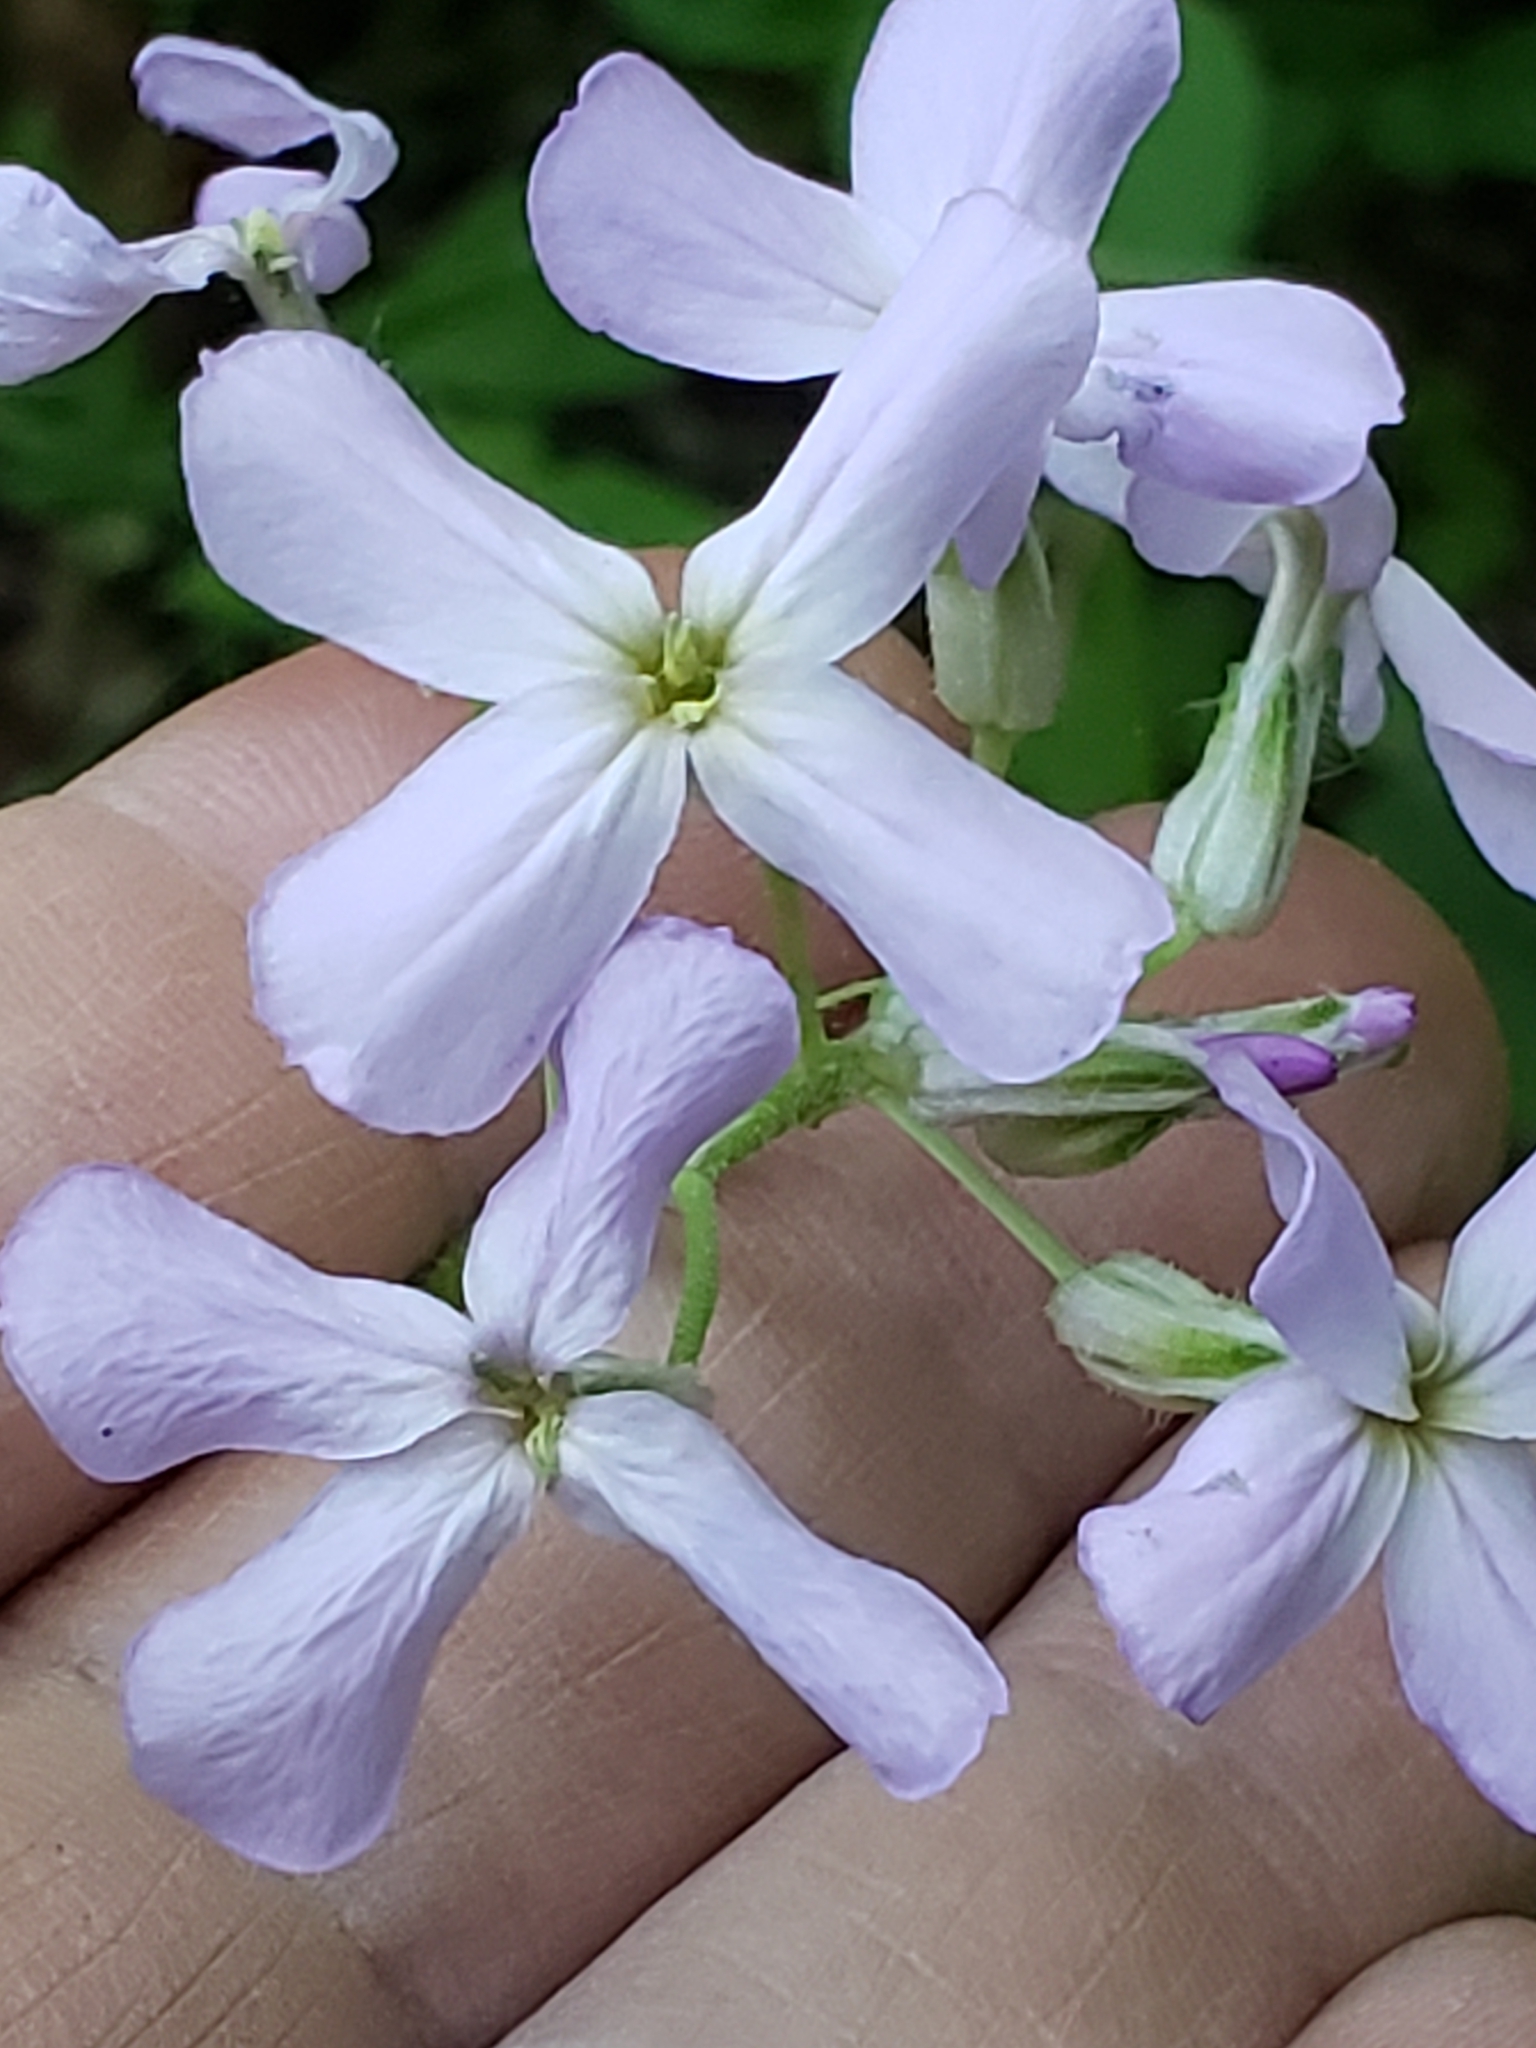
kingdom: Plantae
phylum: Tracheophyta
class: Magnoliopsida
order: Brassicales
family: Brassicaceae
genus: Hesperis
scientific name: Hesperis matronalis
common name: Dame's-violet
